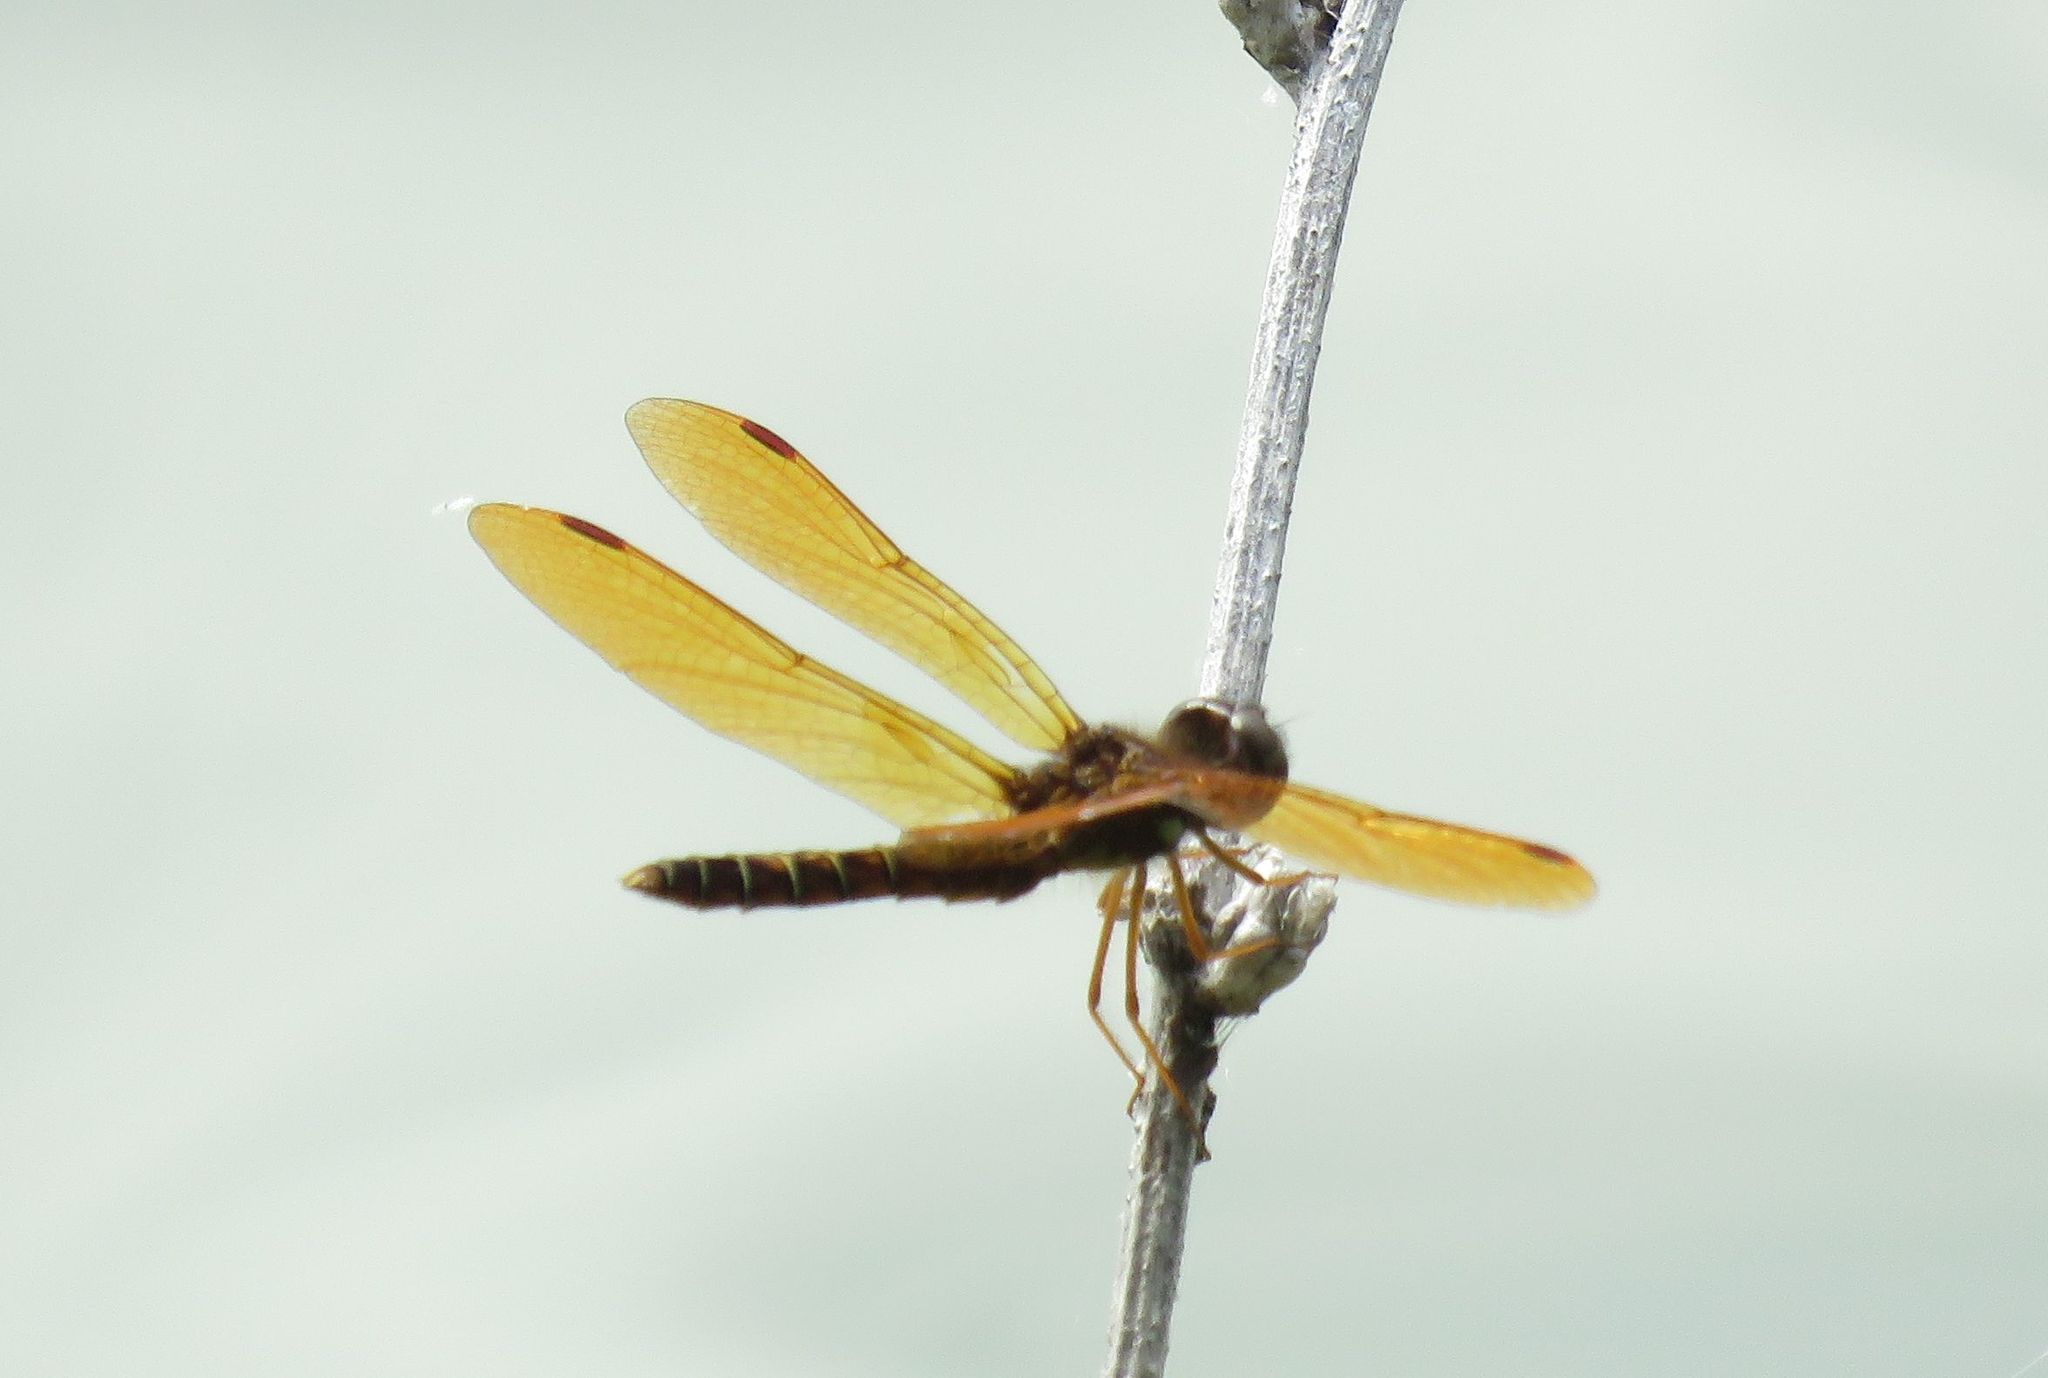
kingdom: Animalia
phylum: Arthropoda
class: Insecta
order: Odonata
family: Libellulidae
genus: Perithemis
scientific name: Perithemis tenera
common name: Eastern amberwing
